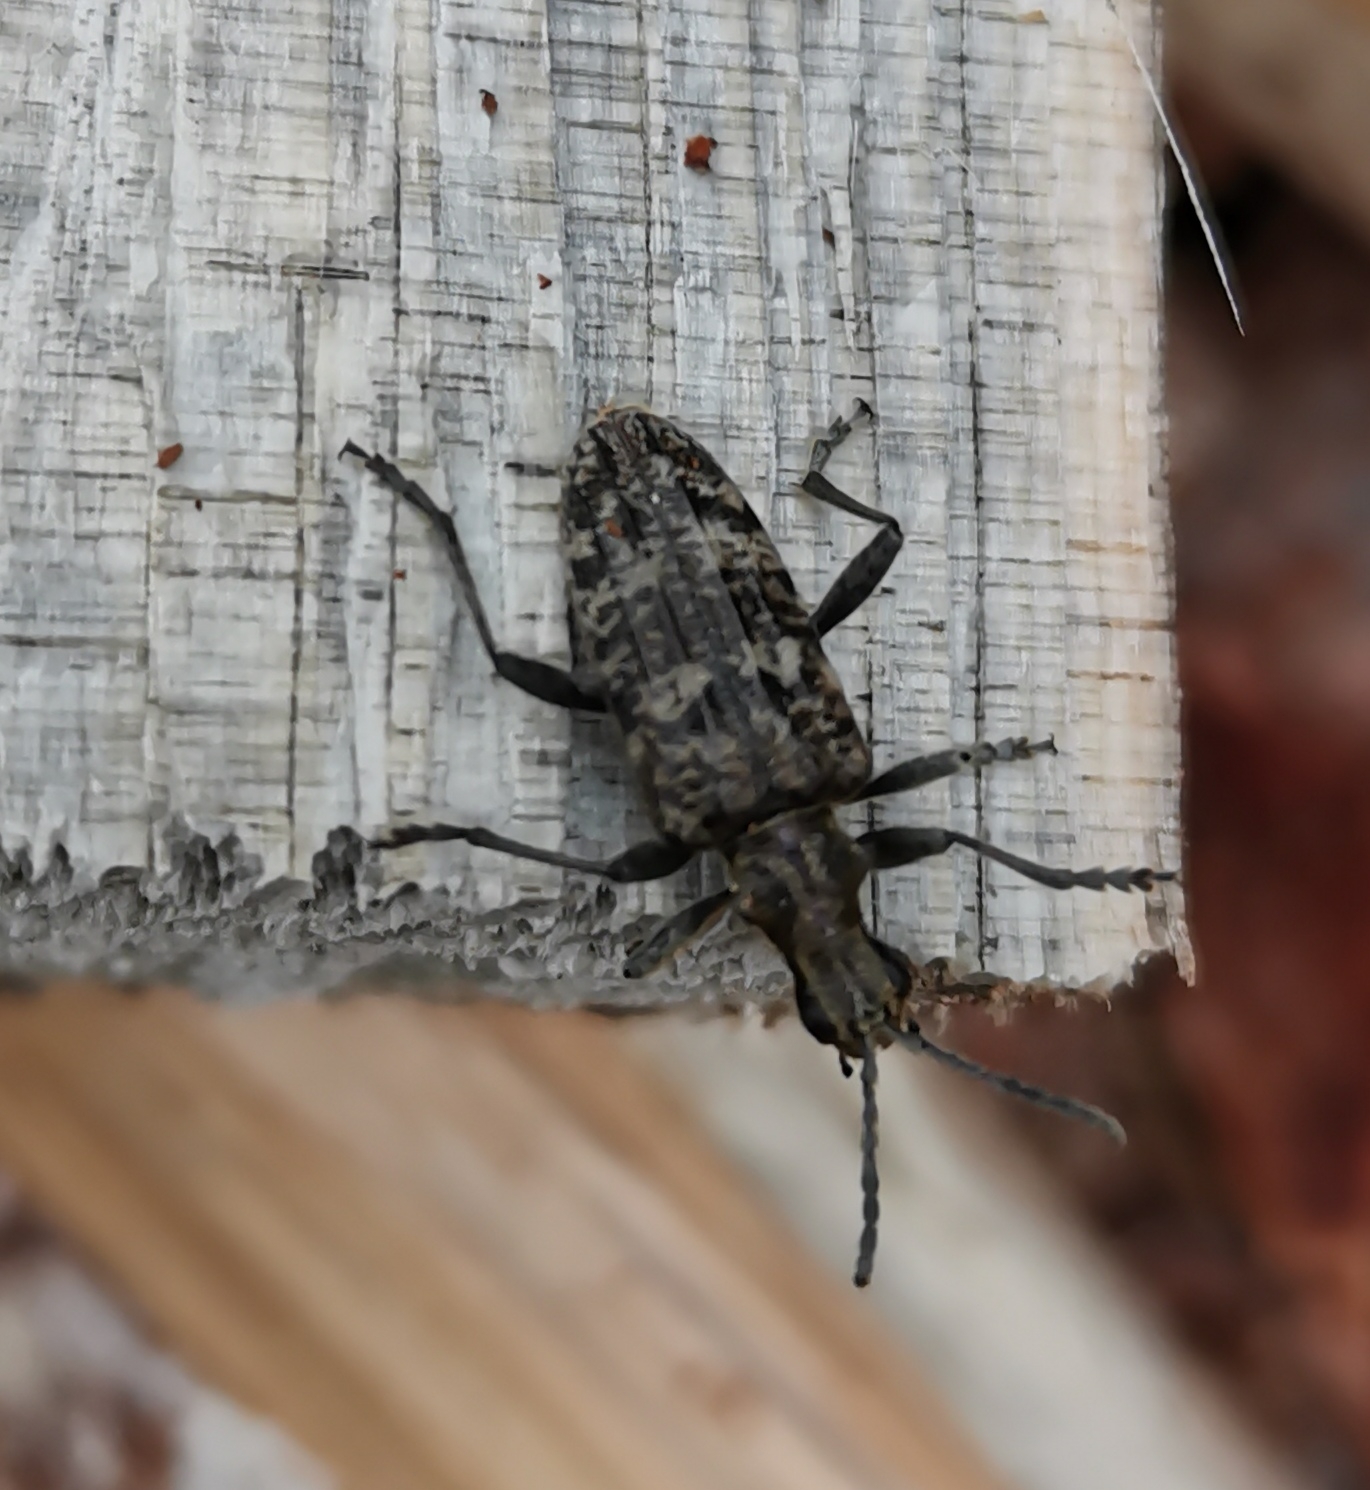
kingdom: Animalia
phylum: Arthropoda
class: Insecta
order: Coleoptera
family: Cerambycidae
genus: Rhagium
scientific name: Rhagium inquisitor
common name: Ribbed pine borer
